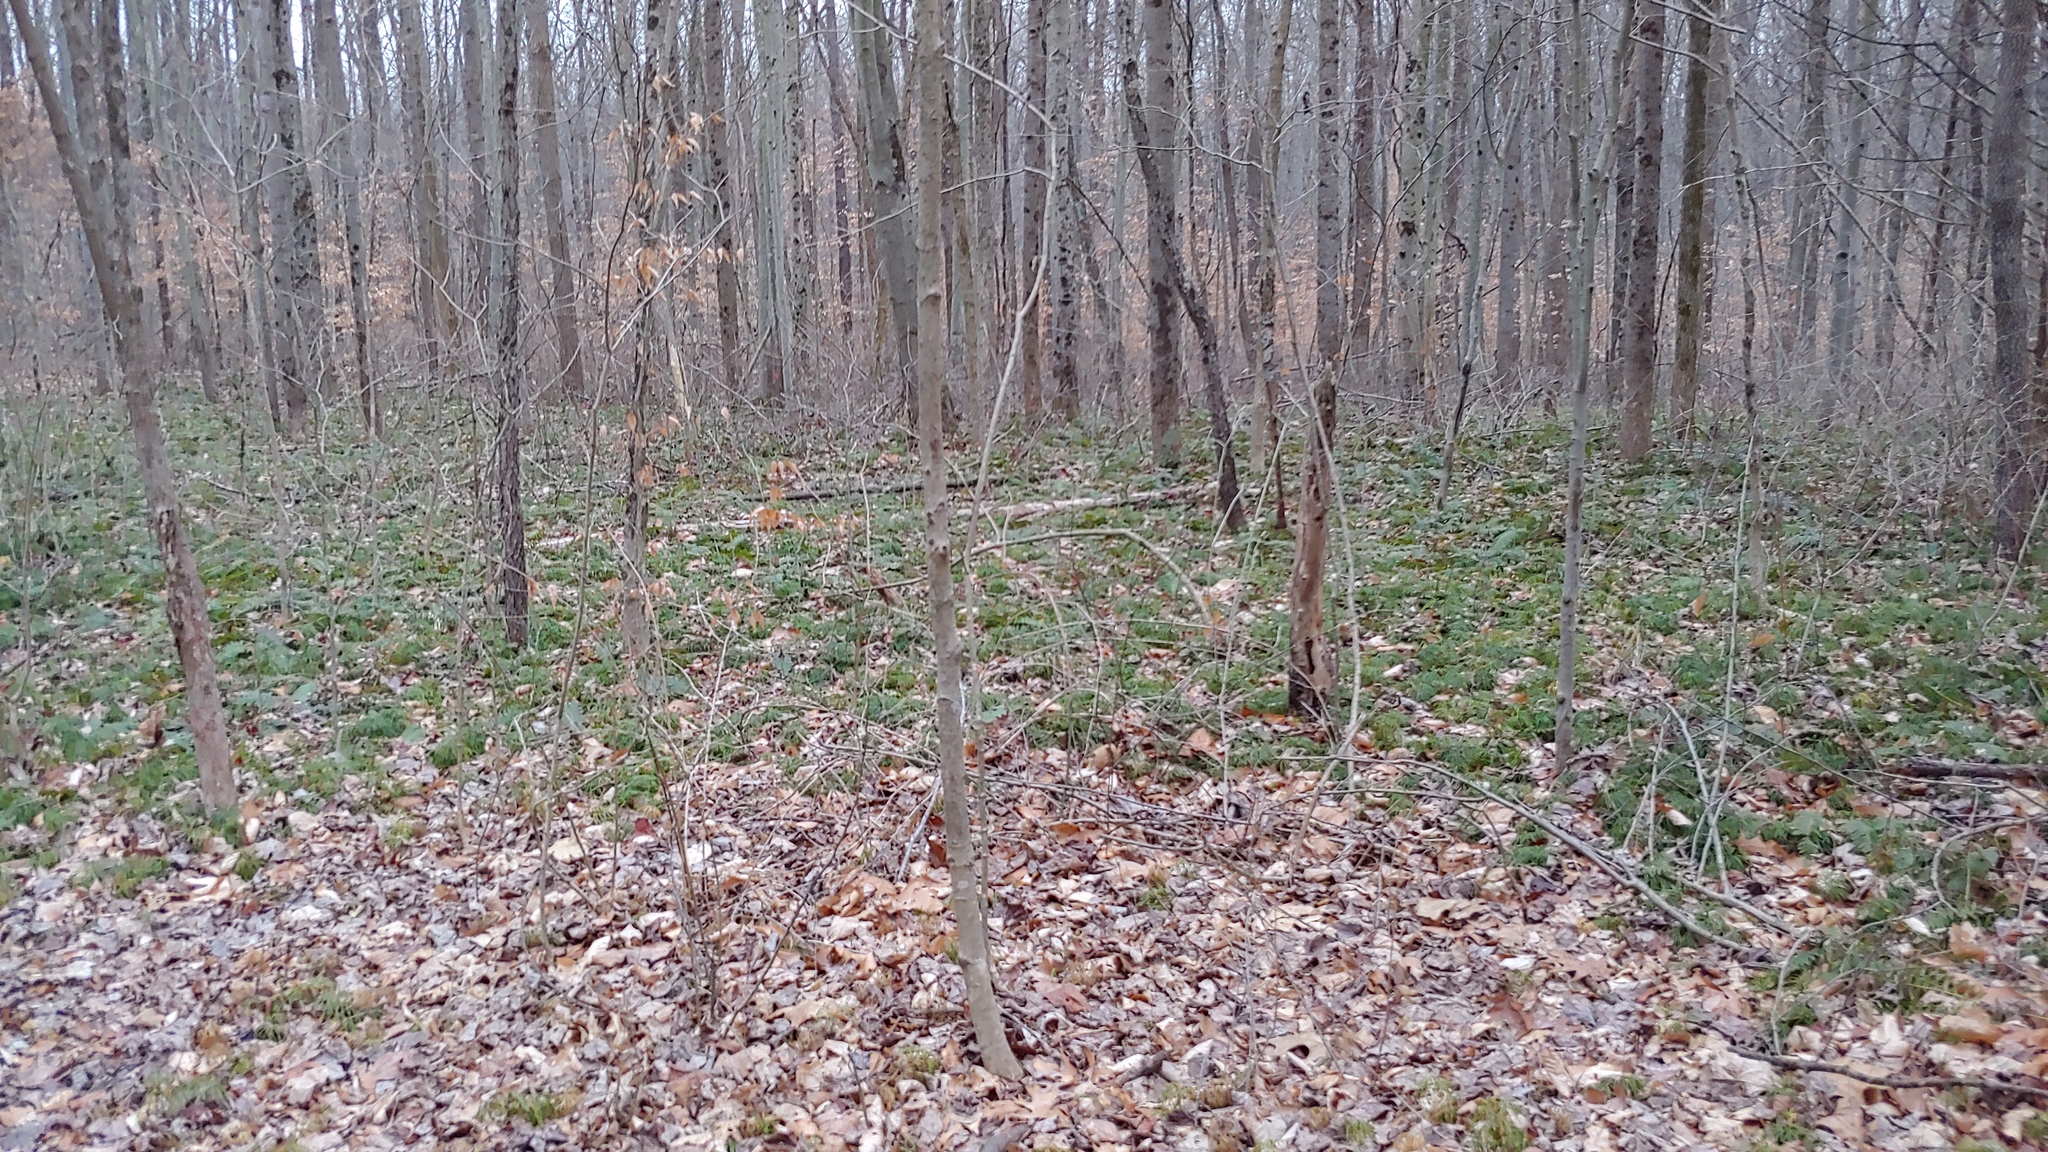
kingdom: Plantae
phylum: Tracheophyta
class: Lycopodiopsida
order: Lycopodiales
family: Lycopodiaceae
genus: Diphasiastrum
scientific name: Diphasiastrum digitatum
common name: Southern running-pine
